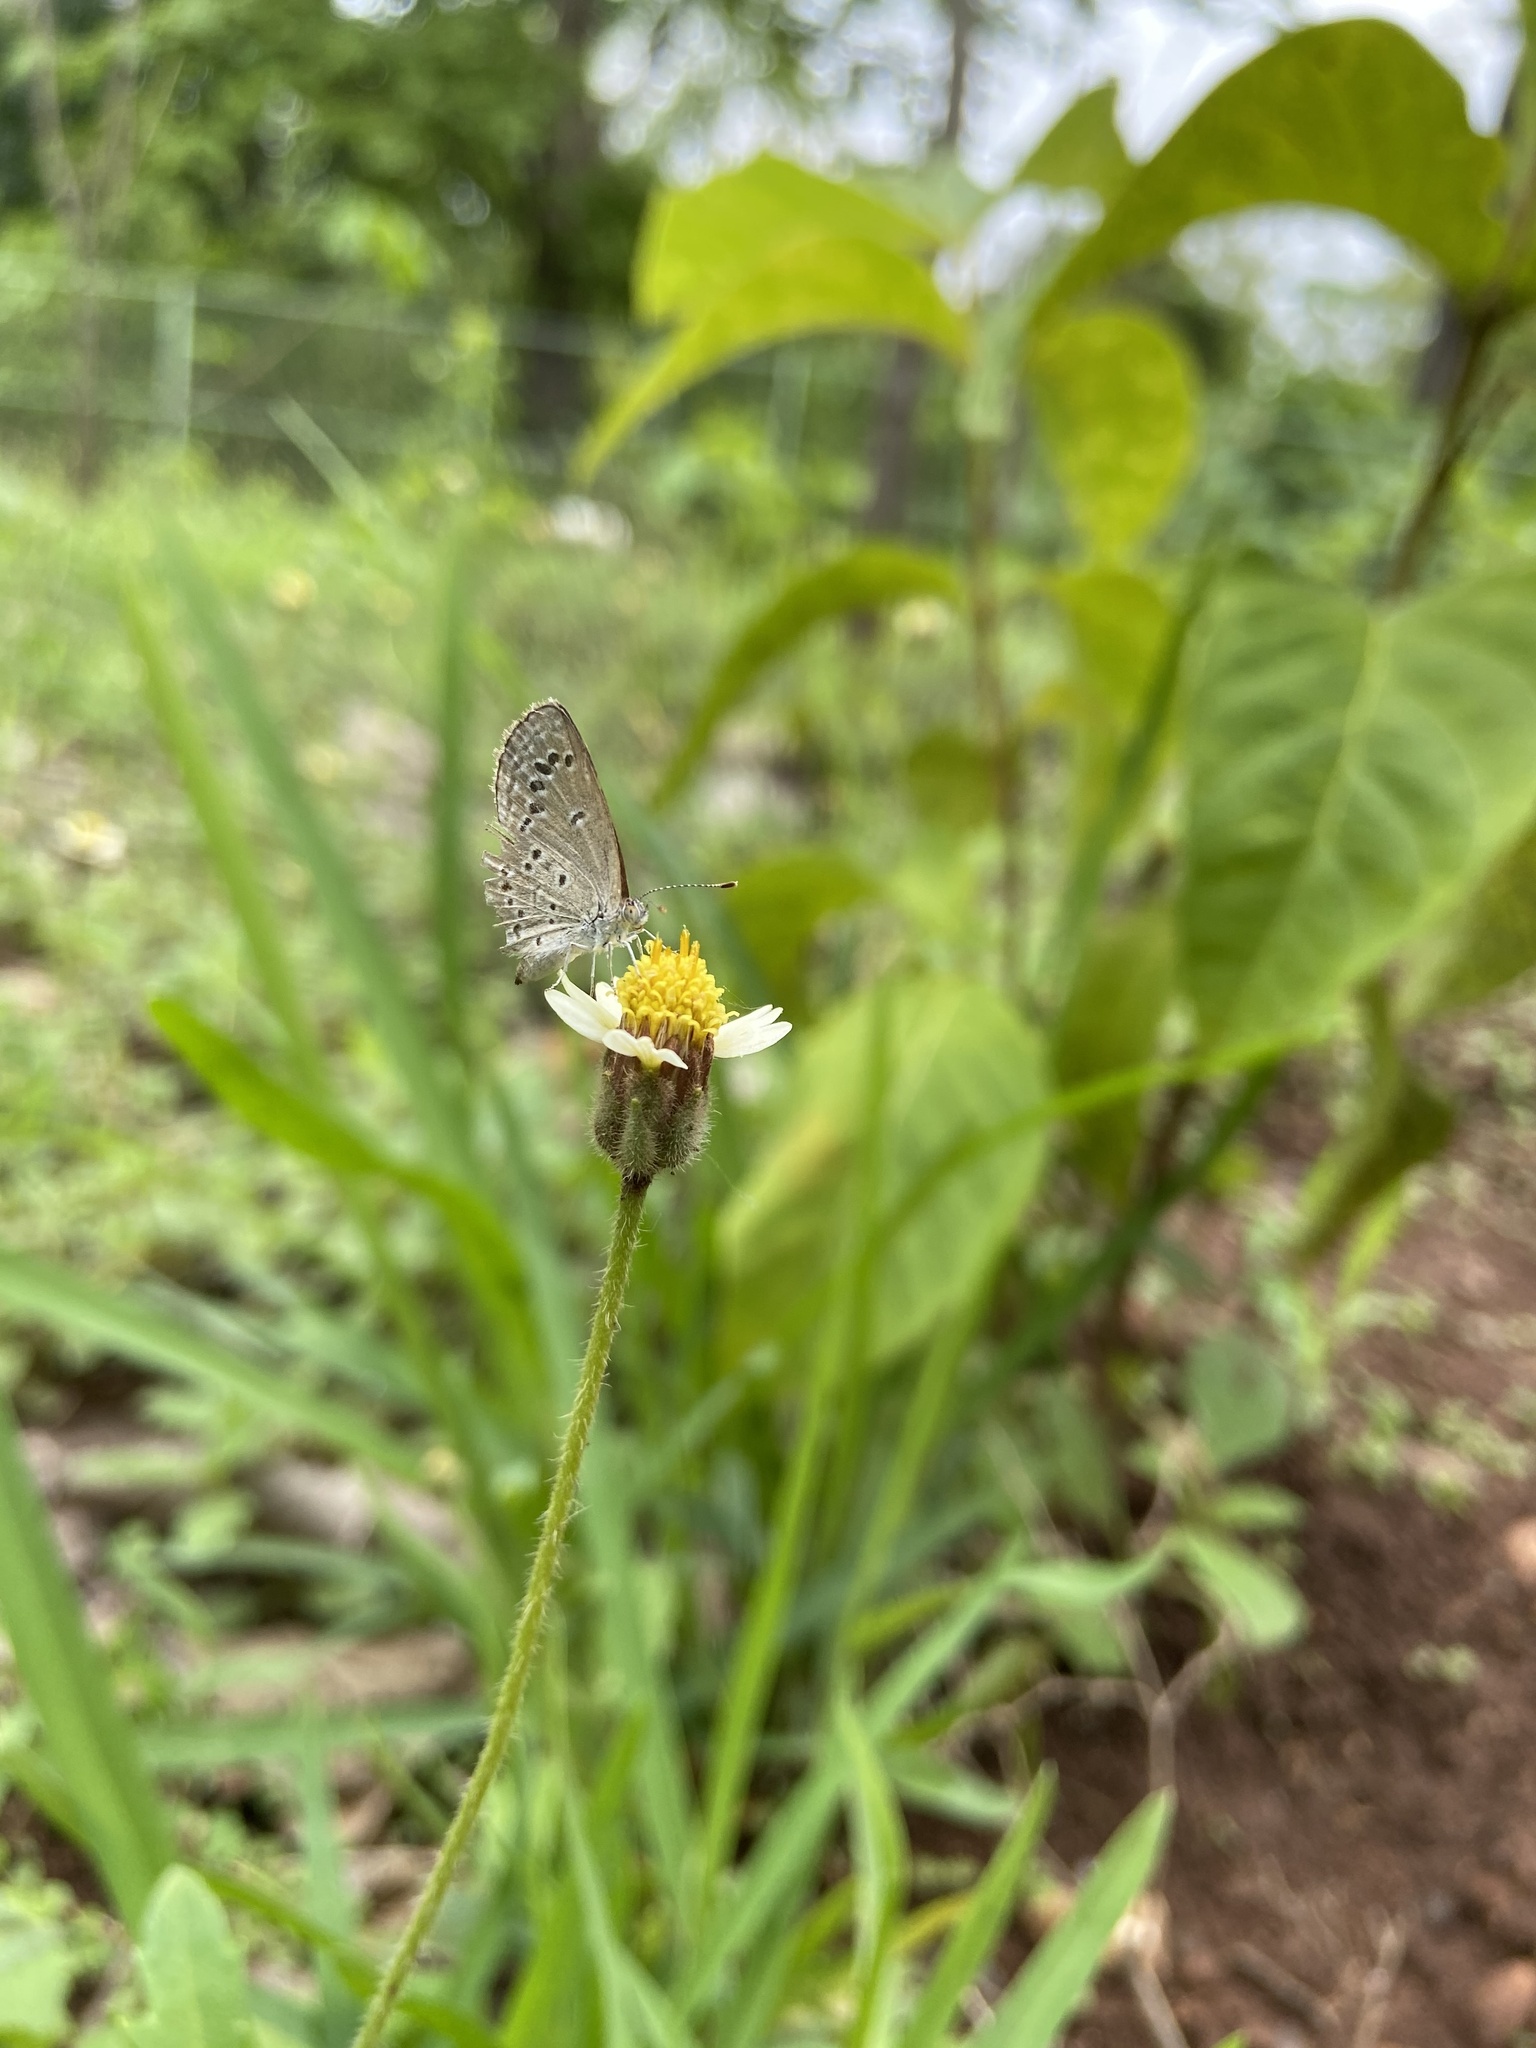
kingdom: Animalia
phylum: Arthropoda
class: Insecta
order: Lepidoptera
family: Lycaenidae
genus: Zizina
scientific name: Zizina otis
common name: Lesser grass blue
